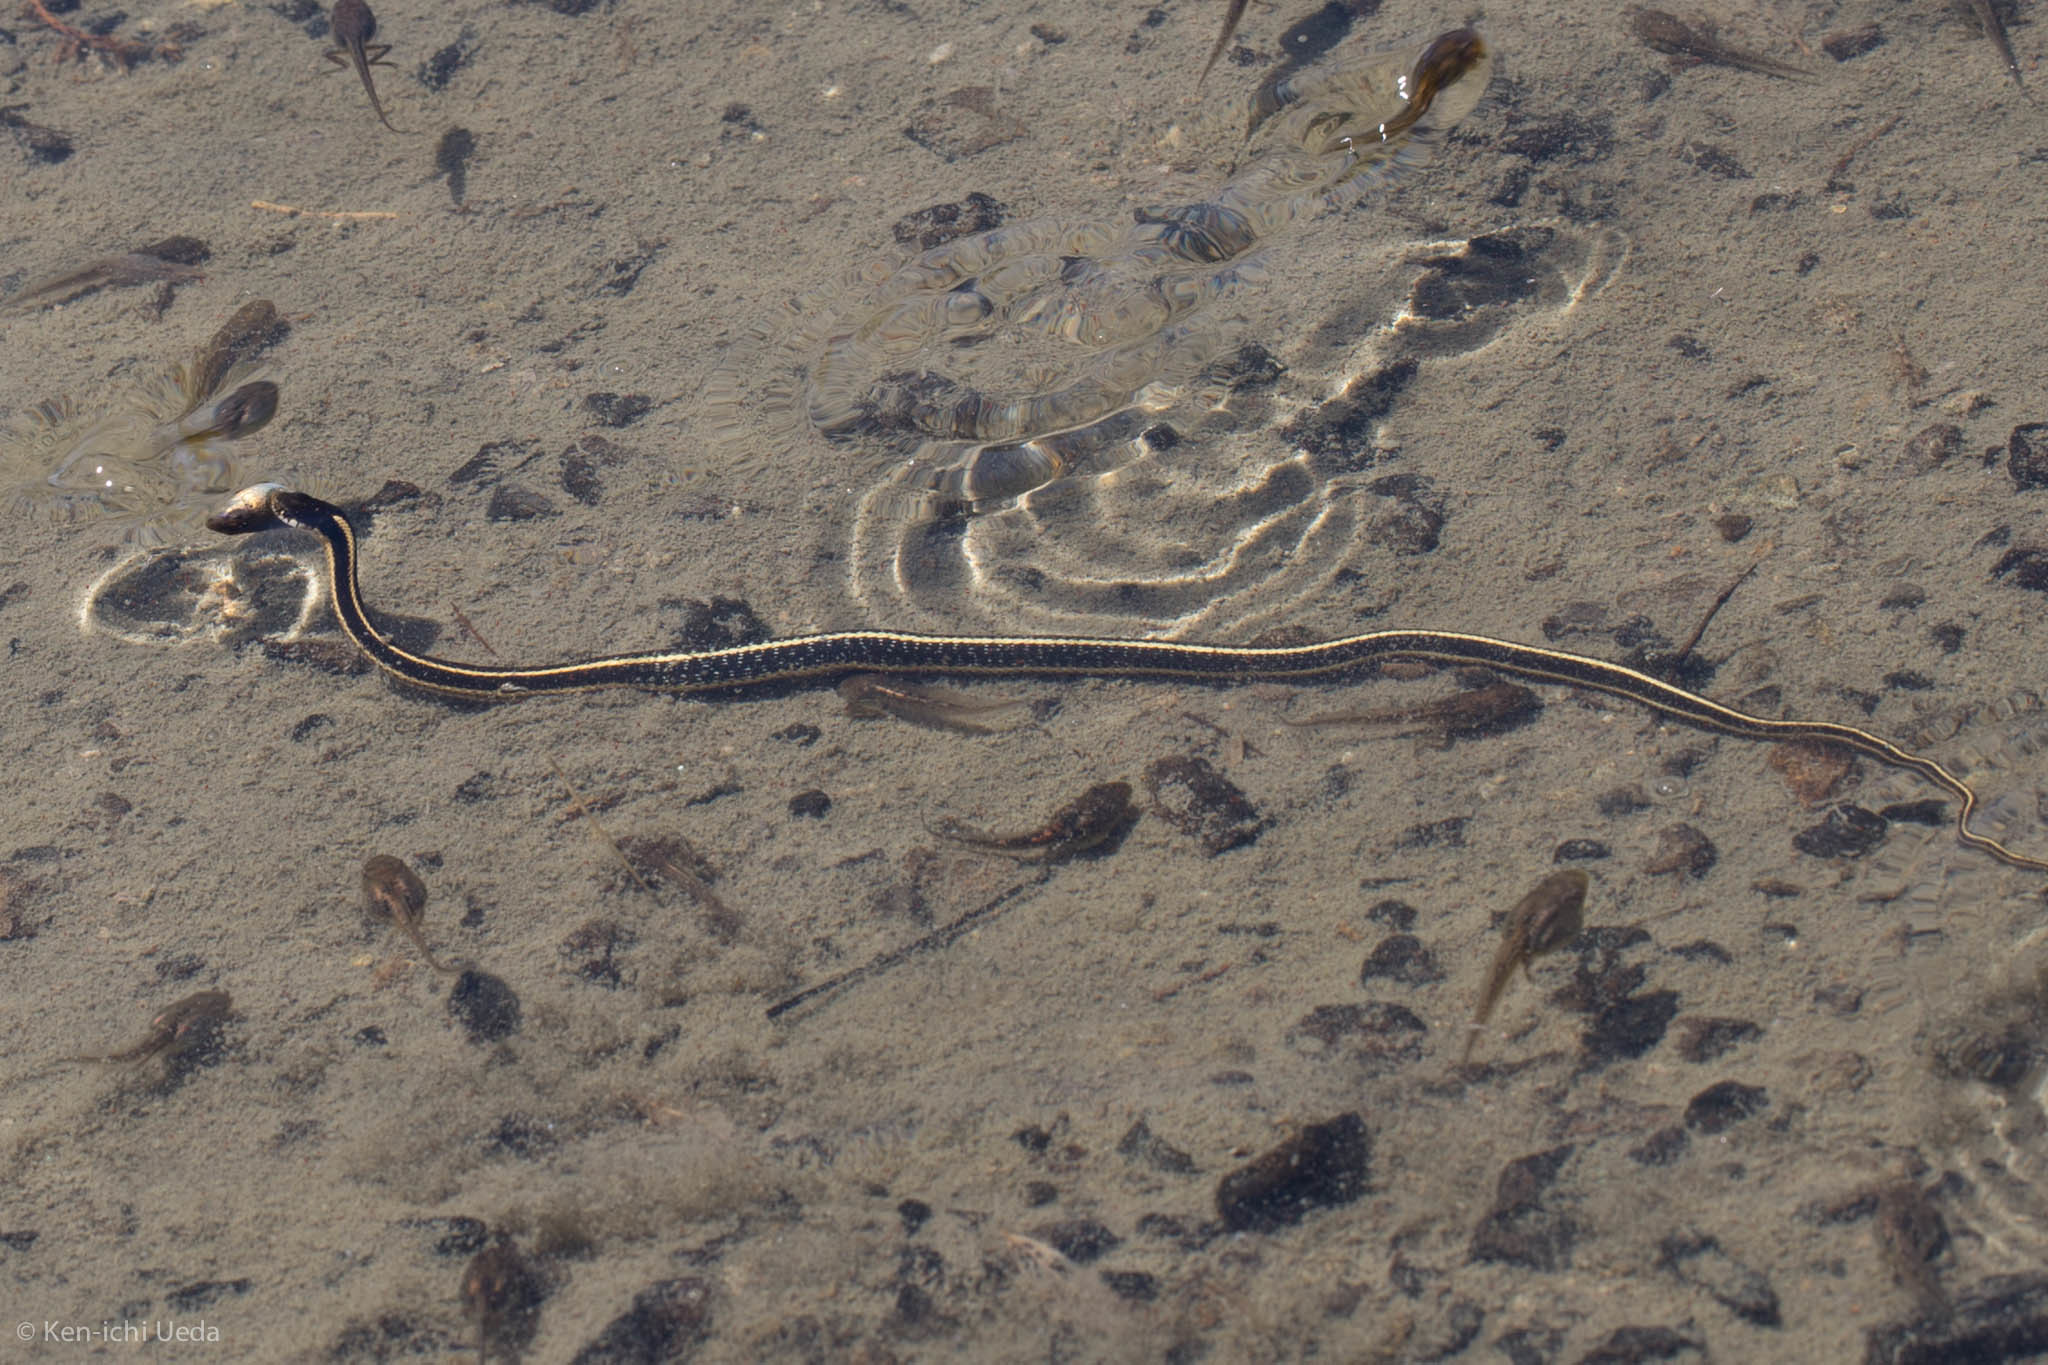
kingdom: Animalia
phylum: Chordata
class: Squamata
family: Colubridae
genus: Thamnophis
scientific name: Thamnophis elegans
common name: Western terrestrial garter snake
